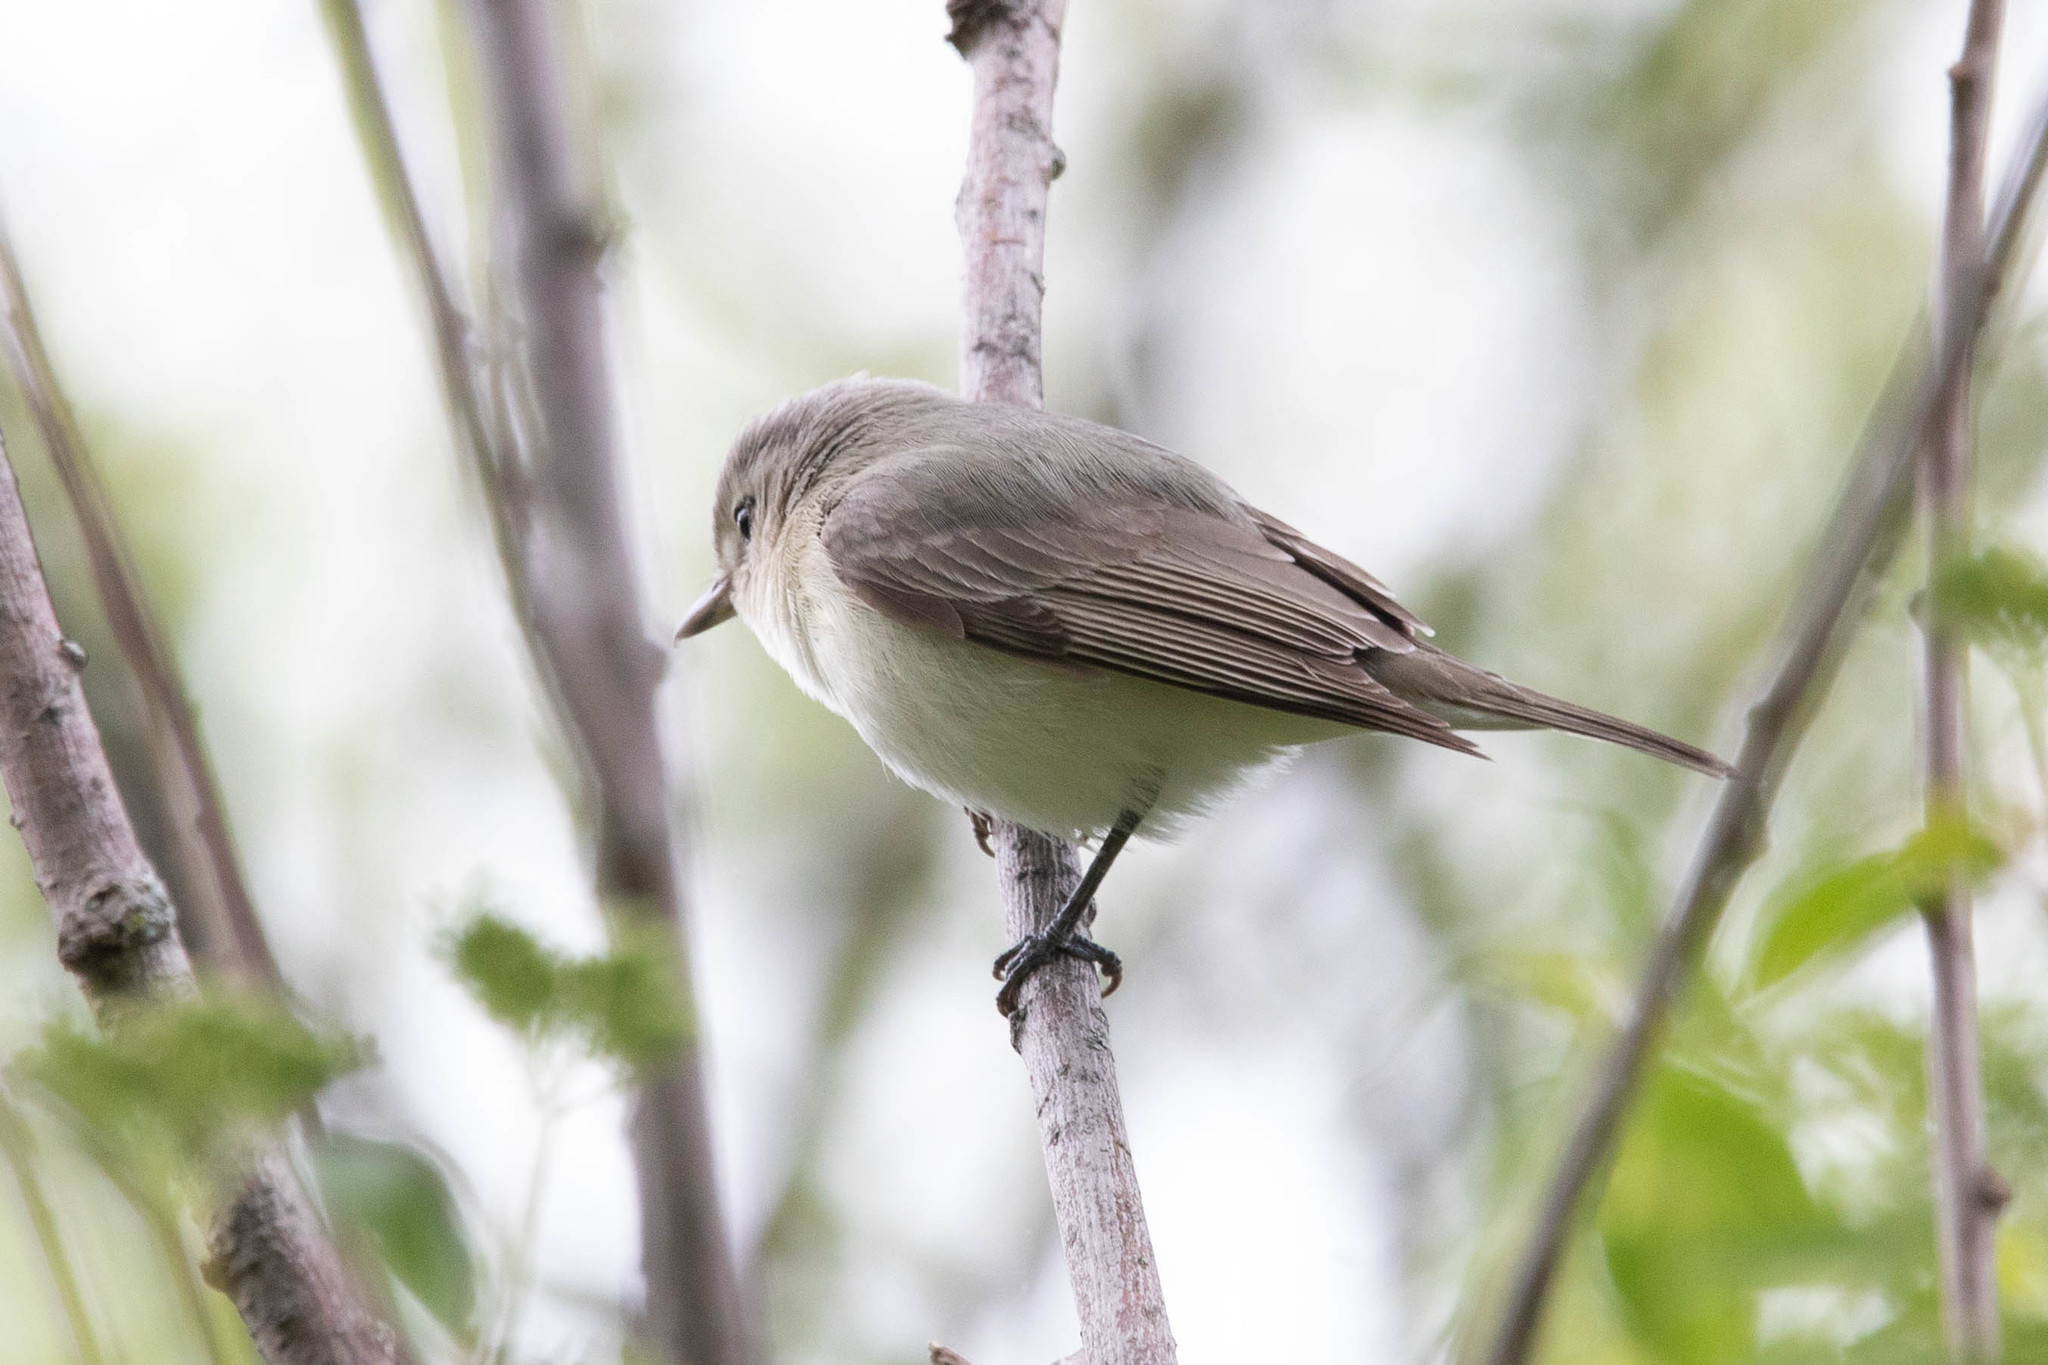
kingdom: Animalia
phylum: Chordata
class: Aves
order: Passeriformes
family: Vireonidae
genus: Vireo
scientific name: Vireo gilvus
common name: Warbling vireo
